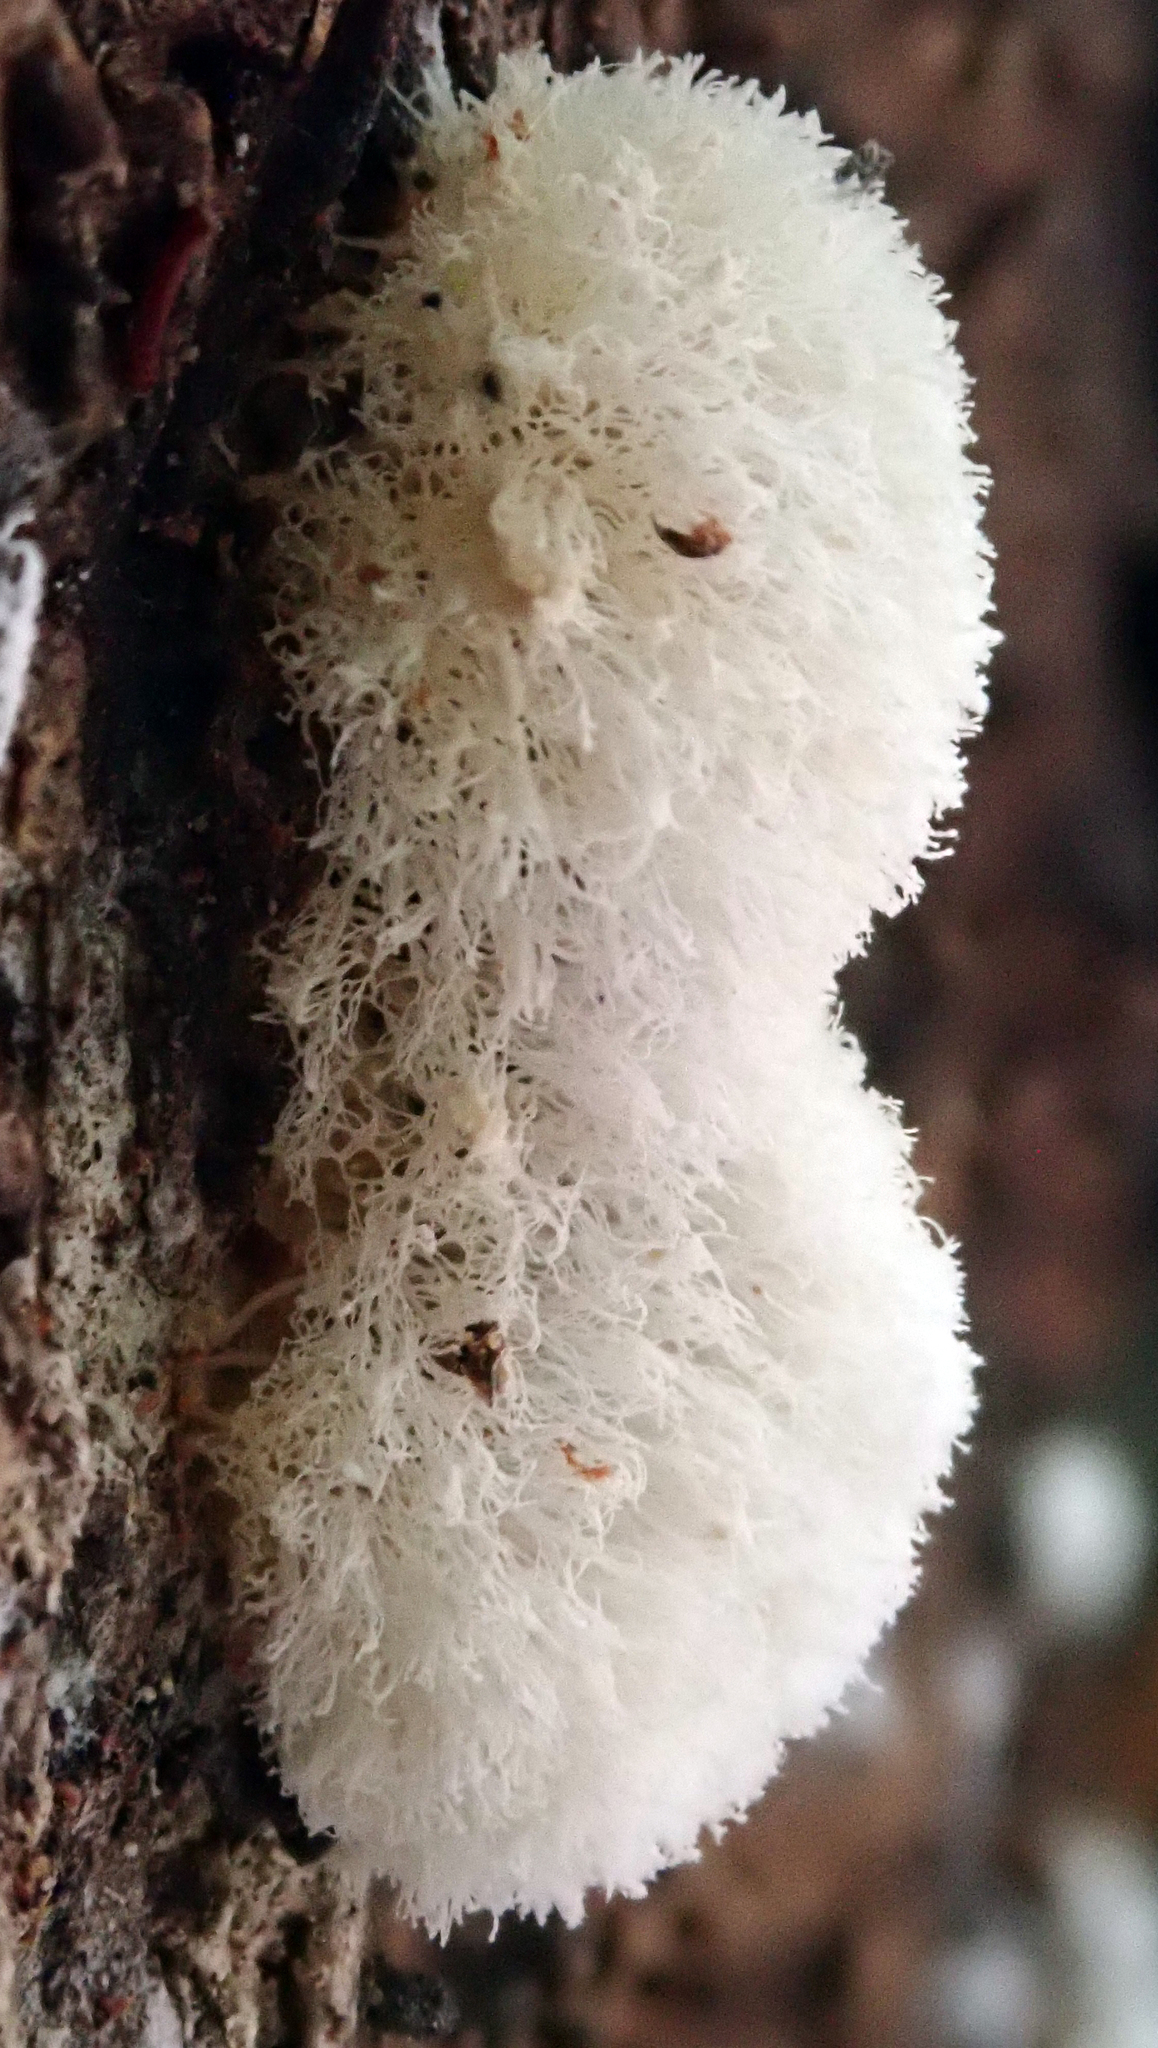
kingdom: Protozoa
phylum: Mycetozoa
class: Protosteliomycetes
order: Ceratiomyxales
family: Ceratiomyxaceae
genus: Ceratiomyxa
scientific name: Ceratiomyxa fruticulosa
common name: Honeycomb coral slime mold
